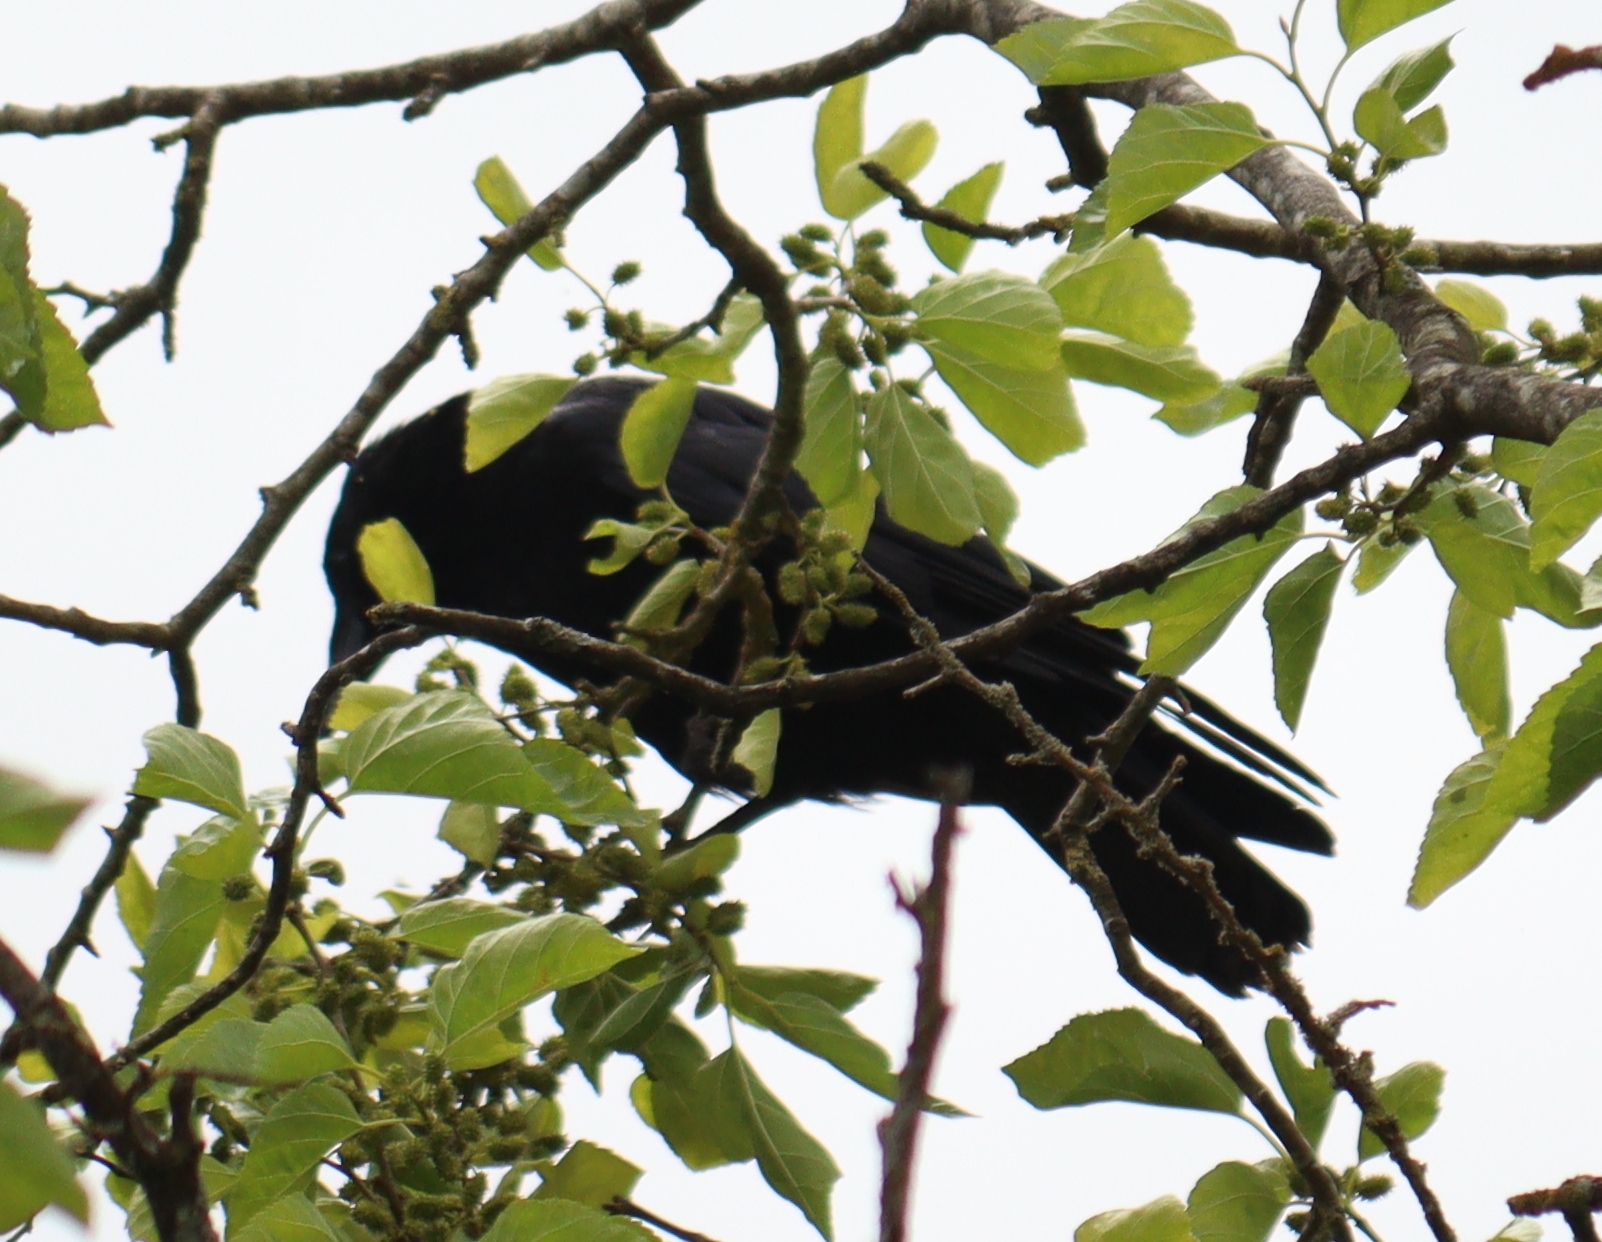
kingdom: Animalia
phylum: Chordata
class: Aves
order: Passeriformes
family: Corvidae
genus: Corvus
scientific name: Corvus corone
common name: Carrion crow
